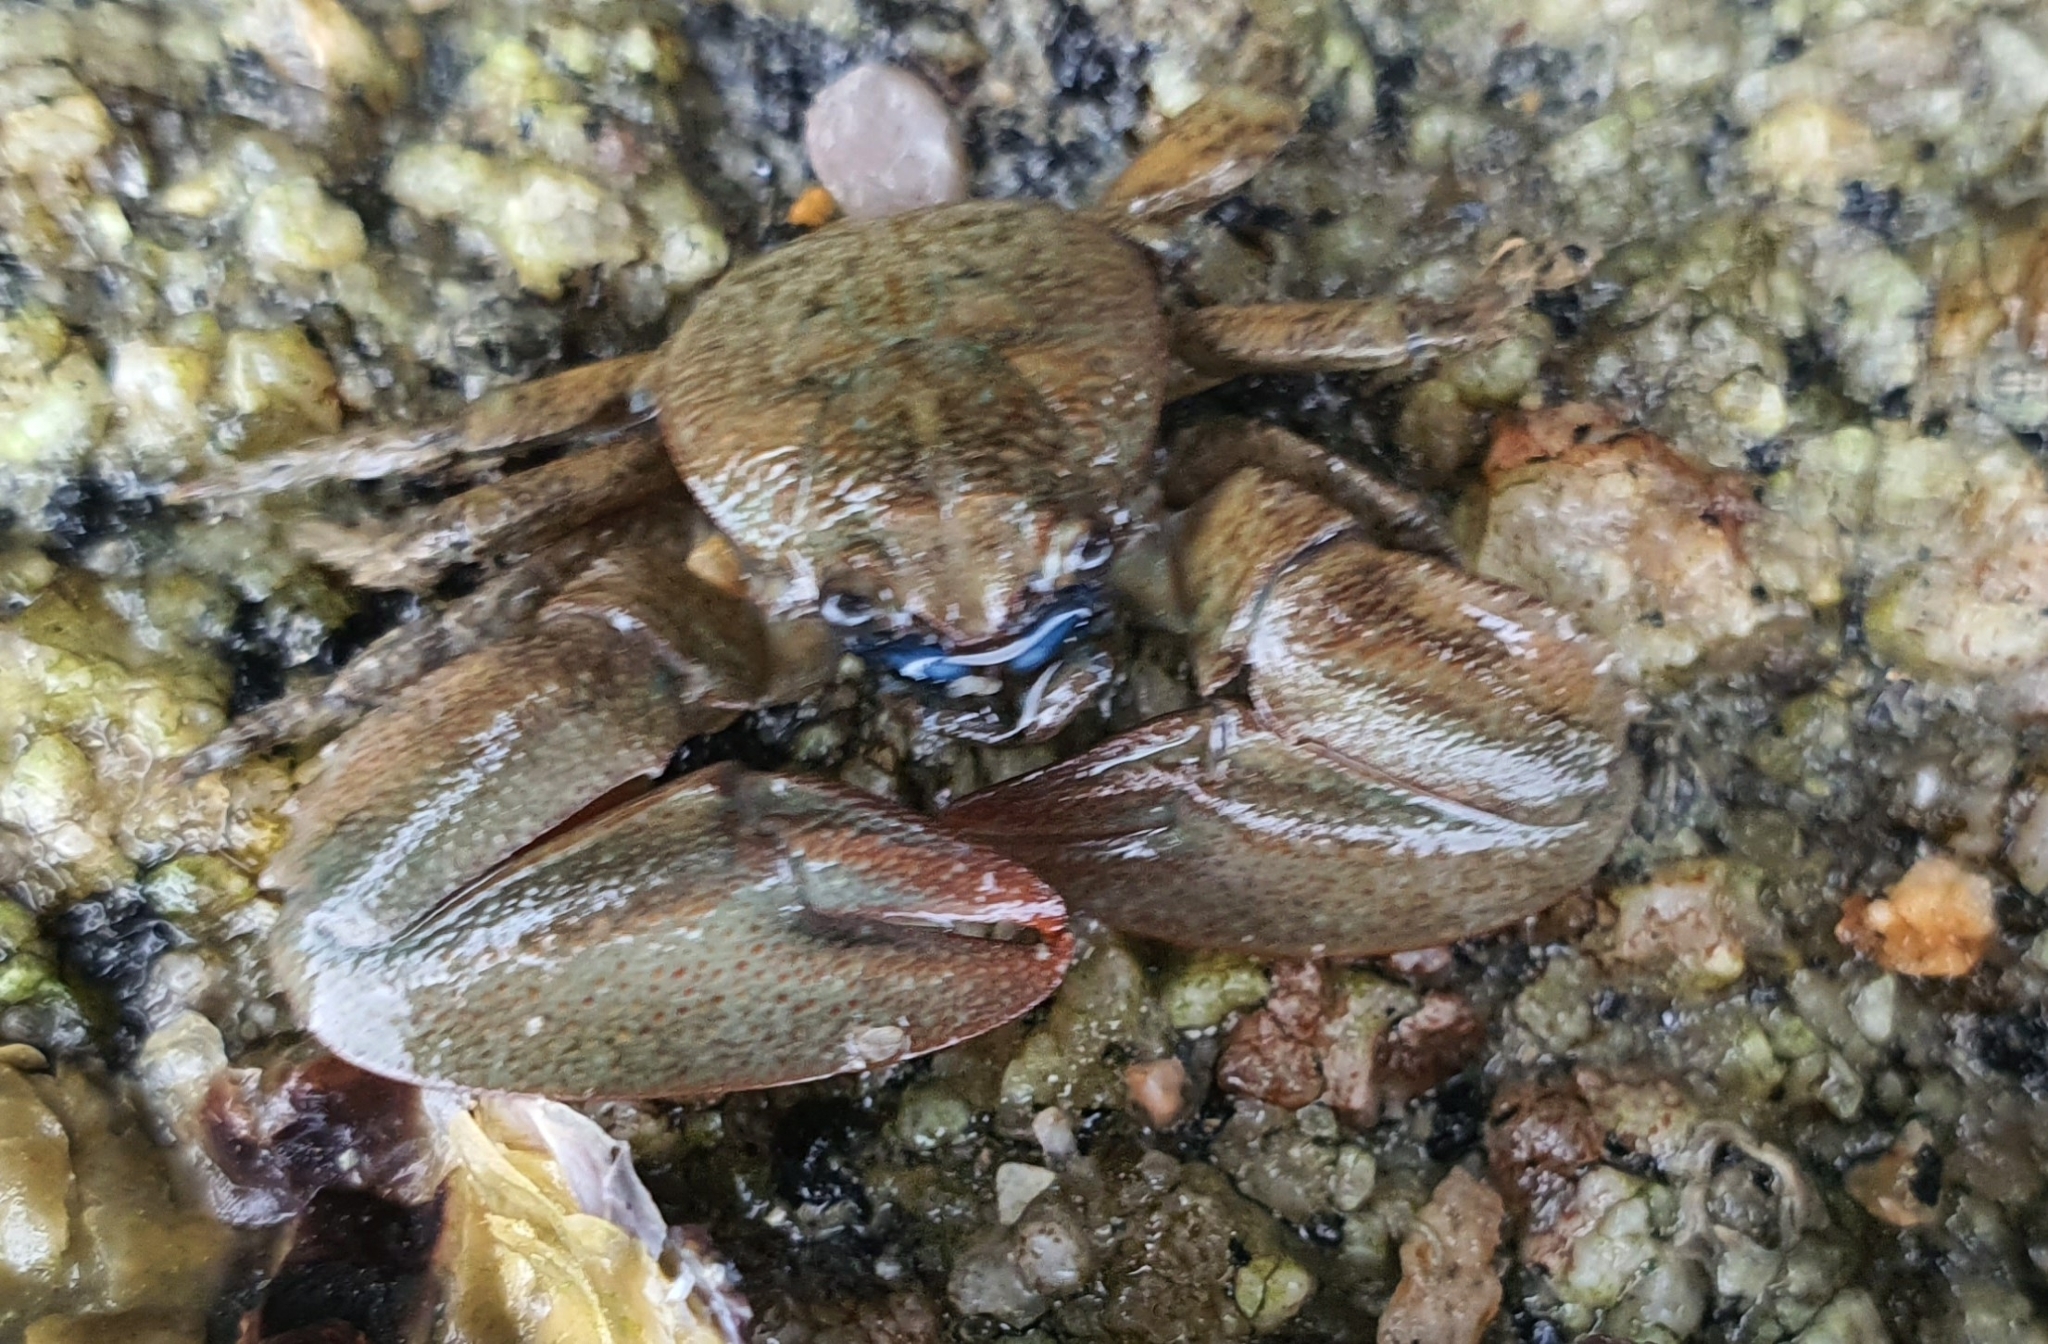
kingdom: Animalia
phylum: Arthropoda
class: Malacostraca
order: Decapoda
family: Porcellanidae
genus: Petrolisthes
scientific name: Petrolisthes elongatus
